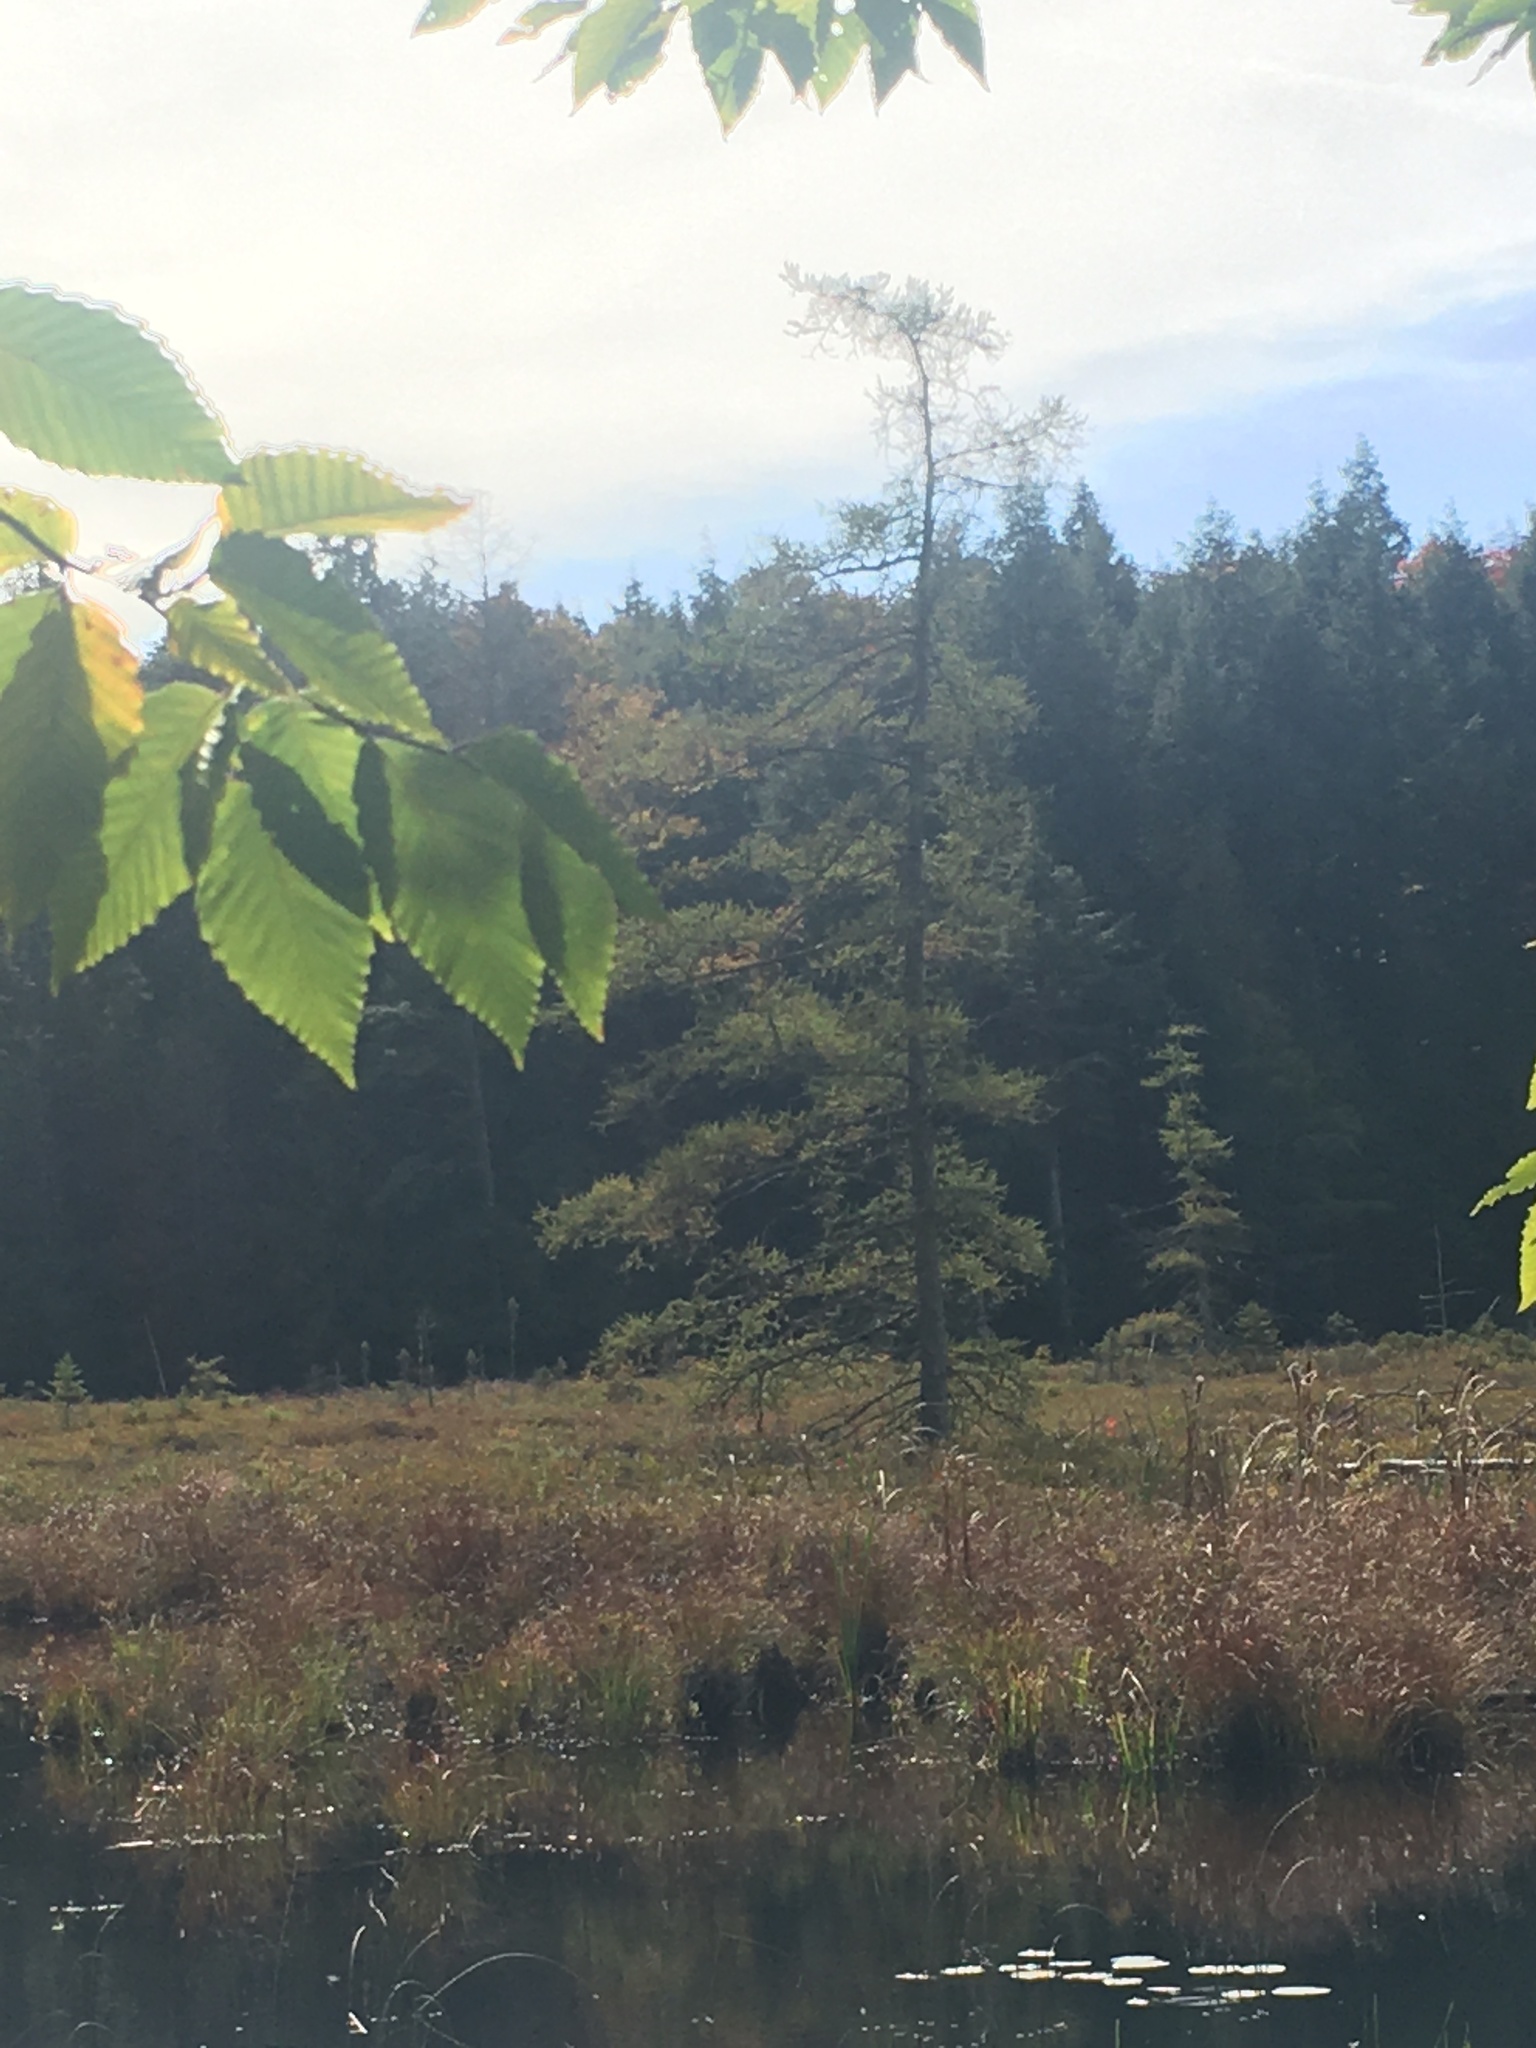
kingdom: Plantae
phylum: Tracheophyta
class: Pinopsida
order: Pinales
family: Pinaceae
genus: Larix
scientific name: Larix laricina
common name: American larch
